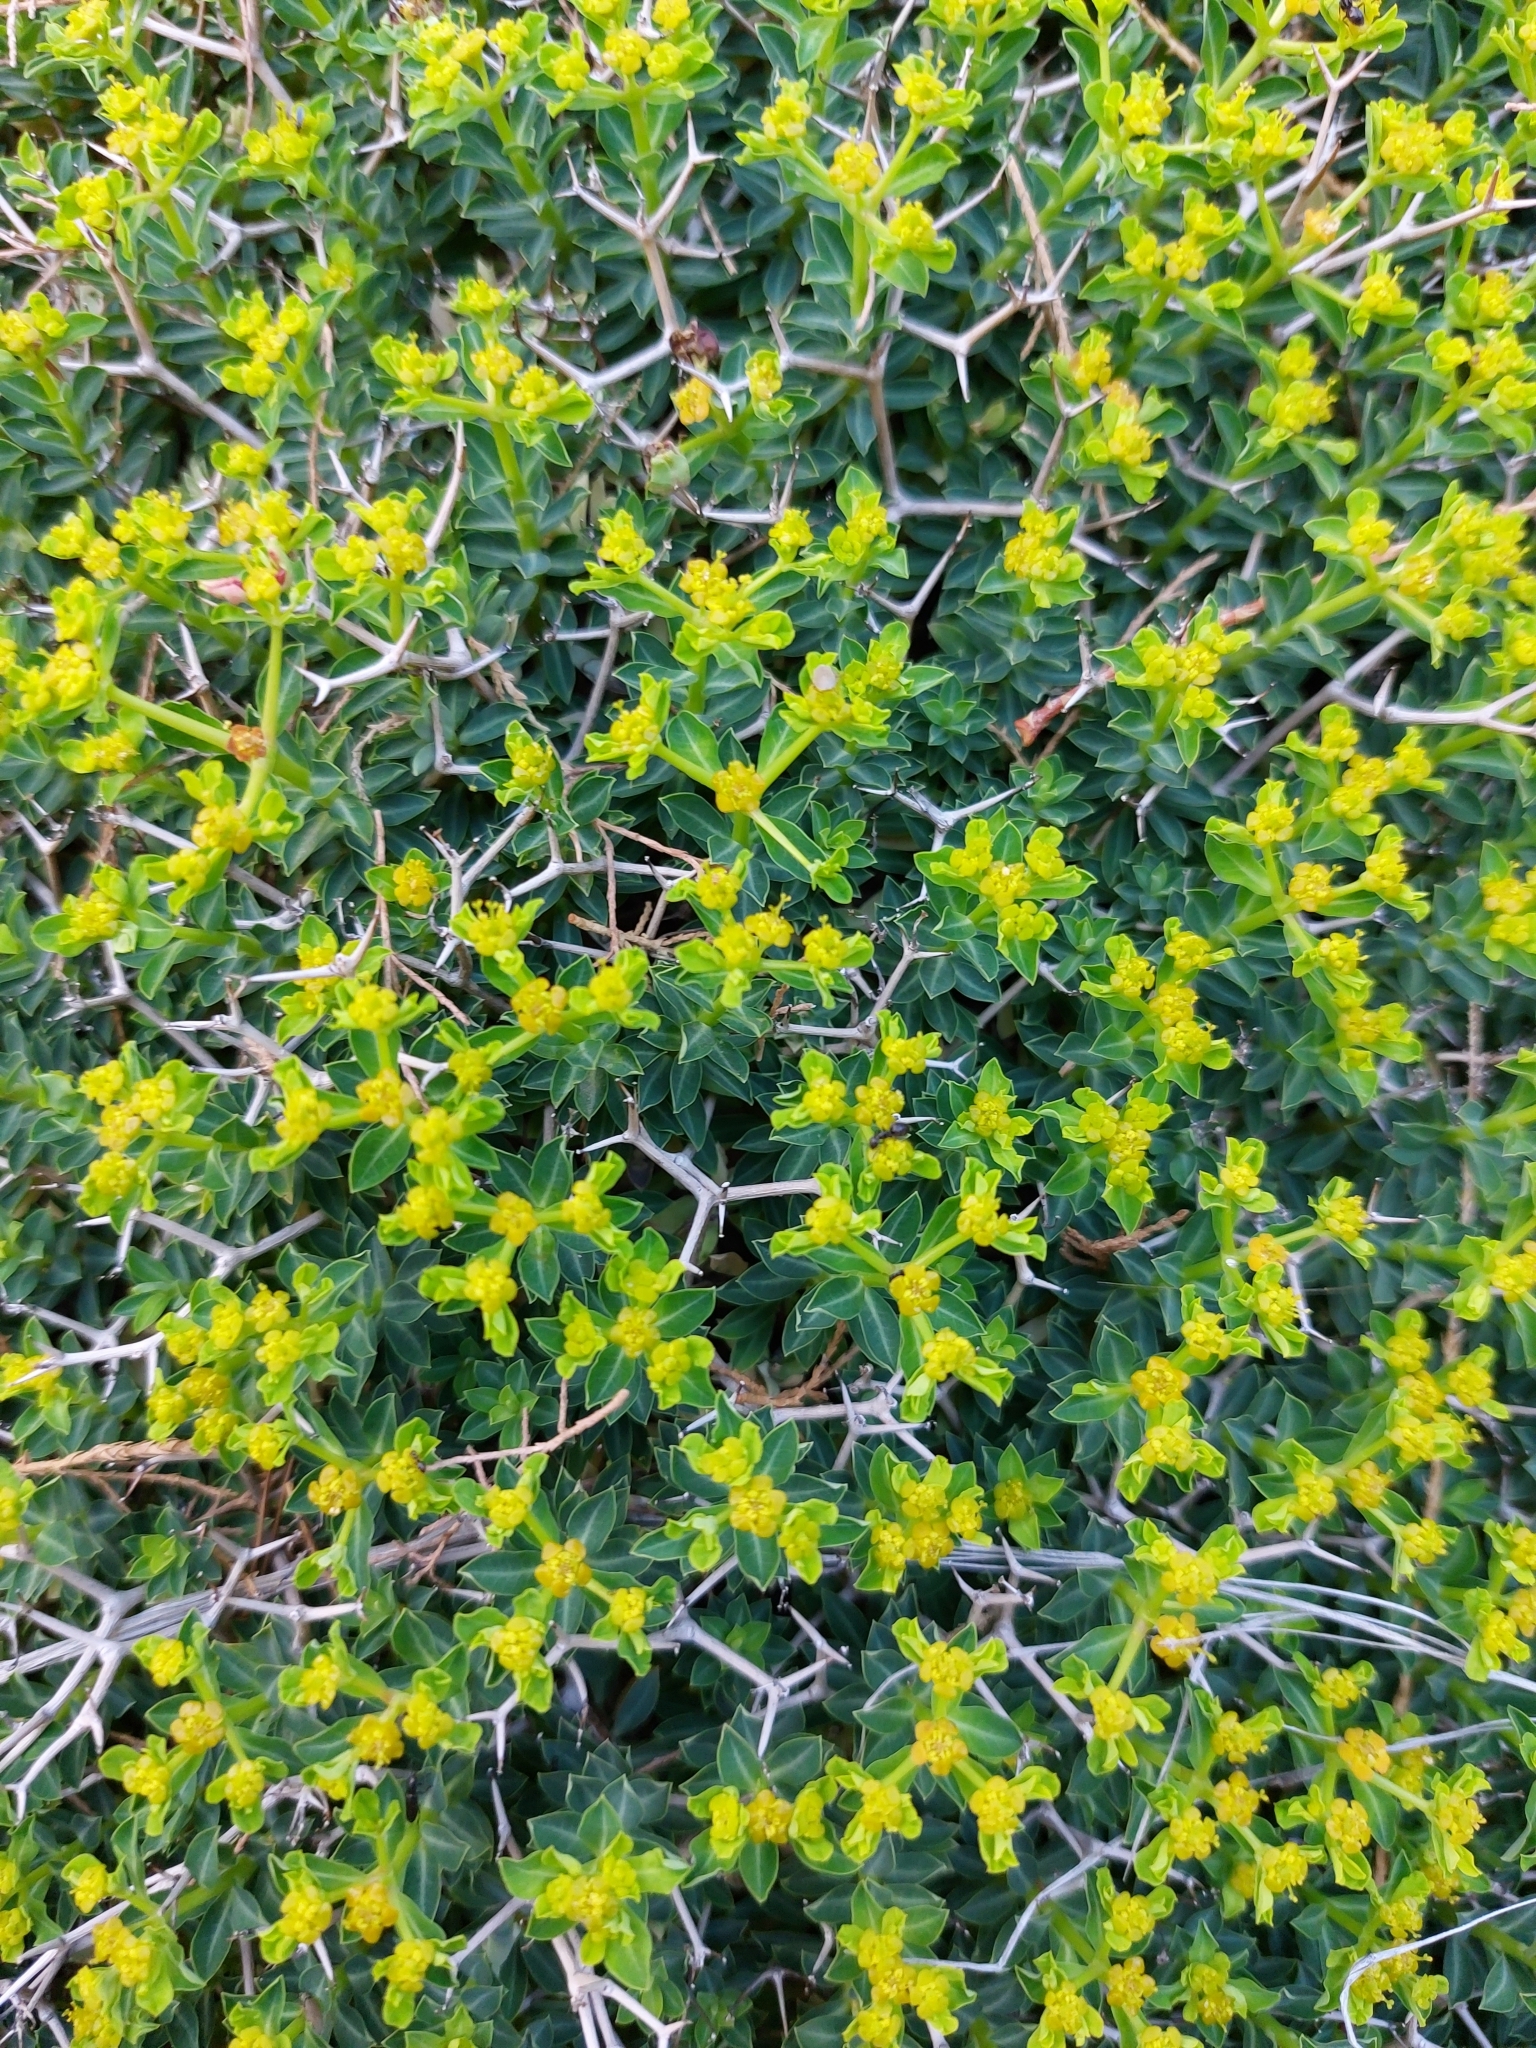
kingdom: Plantae
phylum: Tracheophyta
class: Magnoliopsida
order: Malpighiales
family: Euphorbiaceae
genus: Euphorbia
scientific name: Euphorbia acanthothamnos
